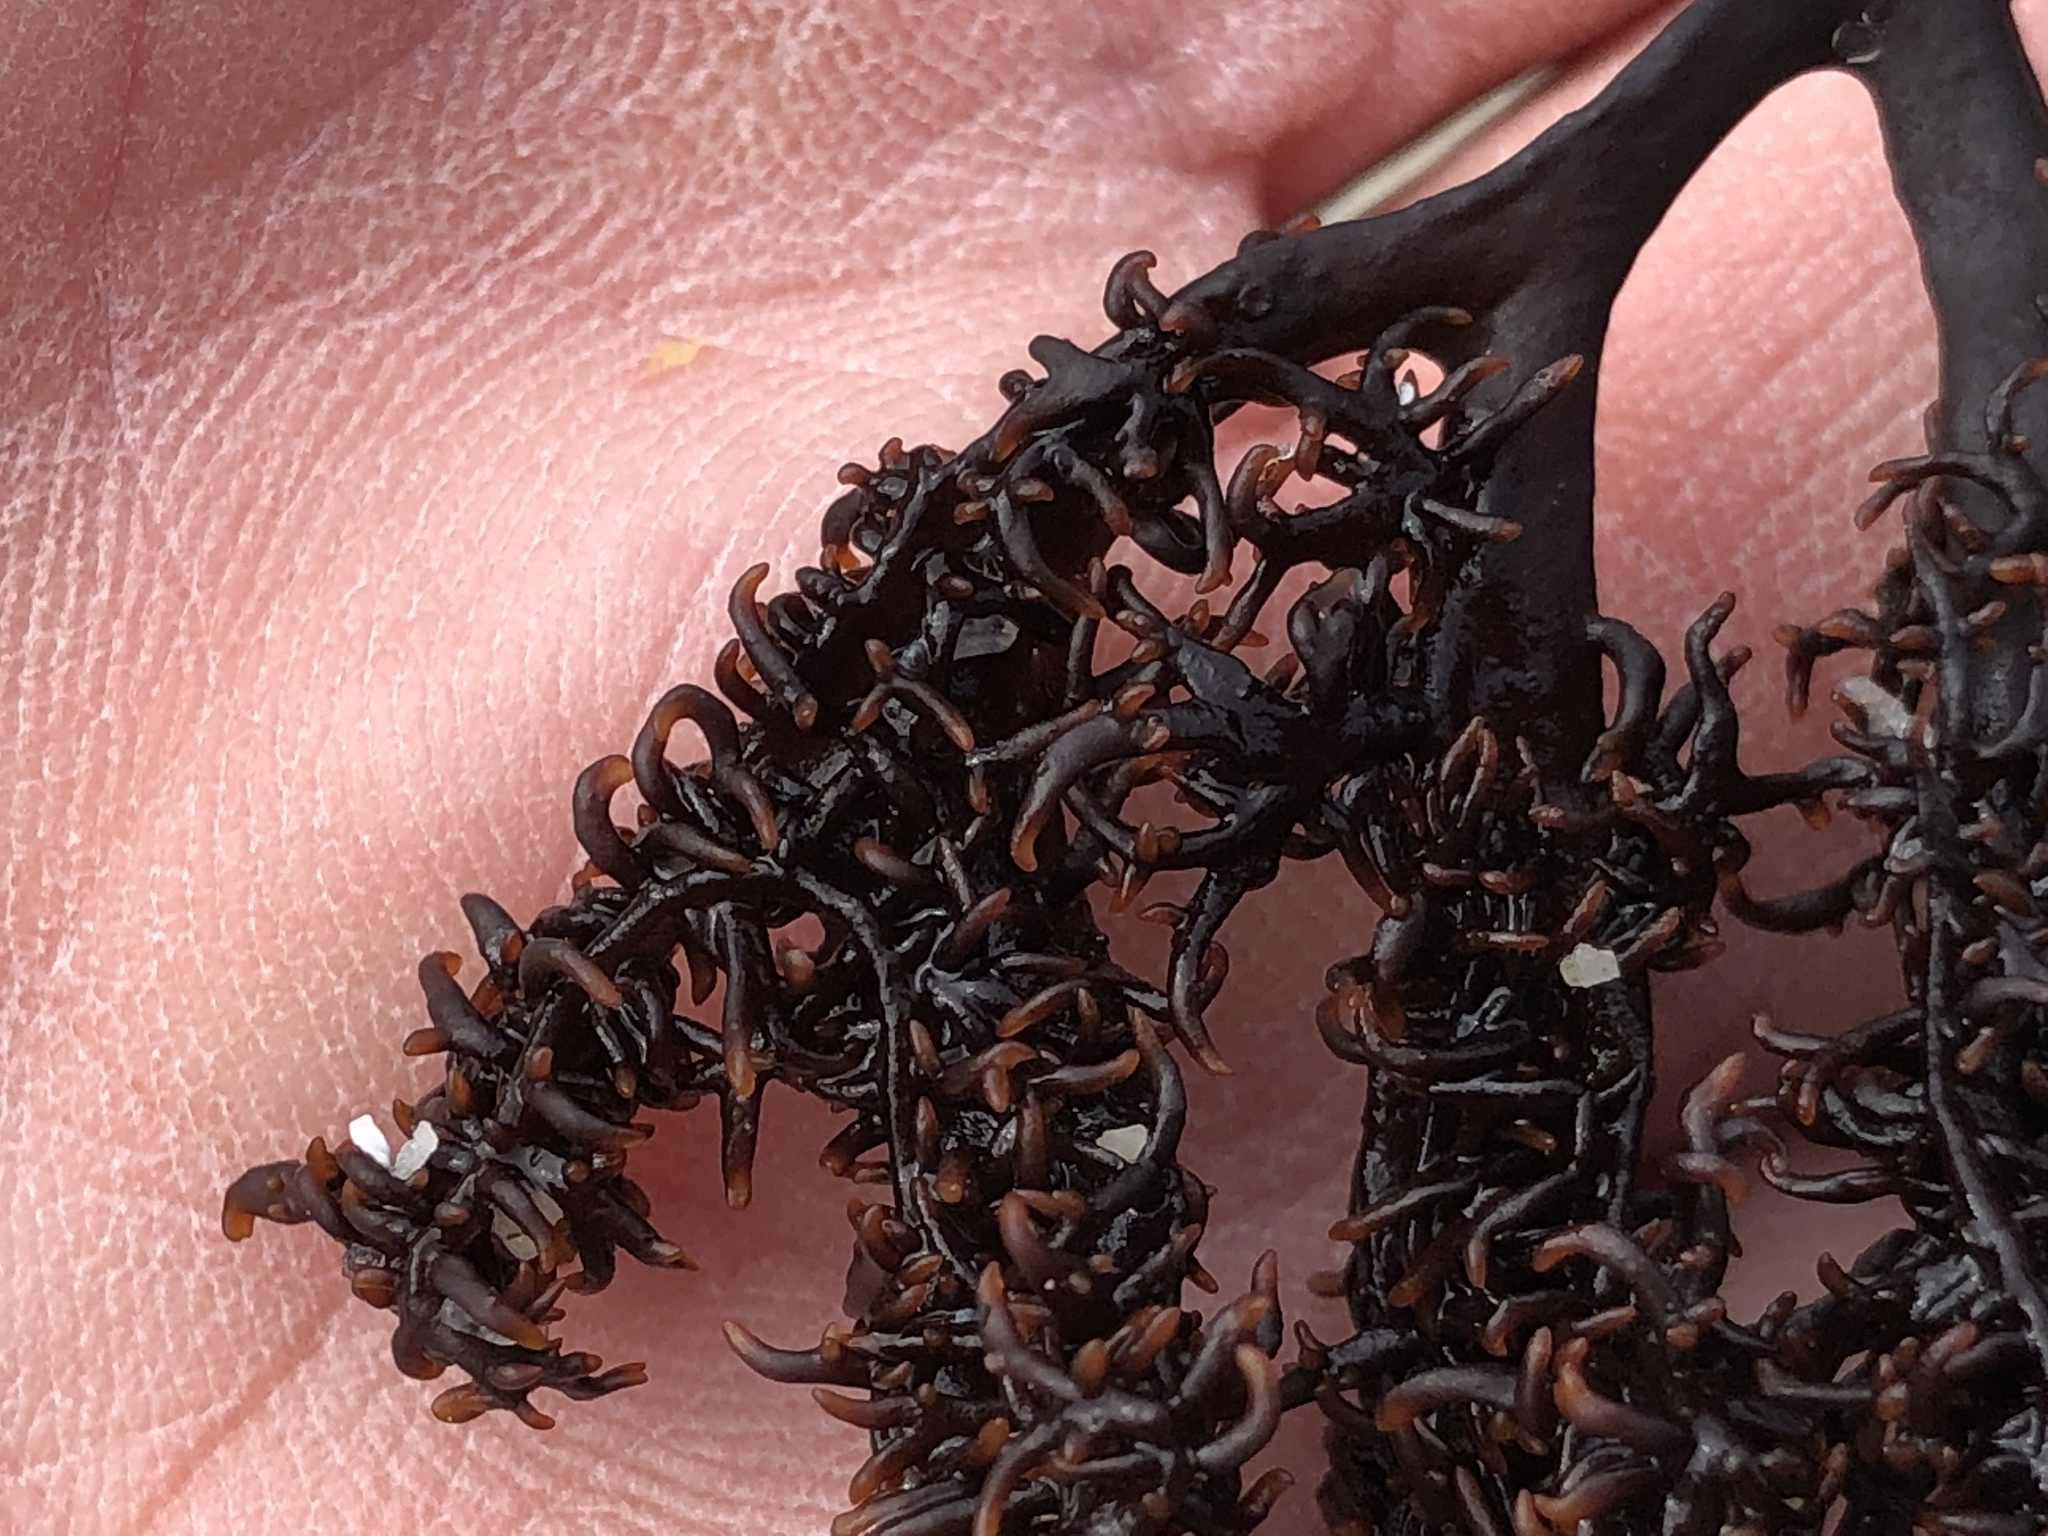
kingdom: Plantae
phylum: Rhodophyta
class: Florideophyceae
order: Gigartinales
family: Phyllophoraceae
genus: Mastocarpus
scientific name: Mastocarpus jardinii
